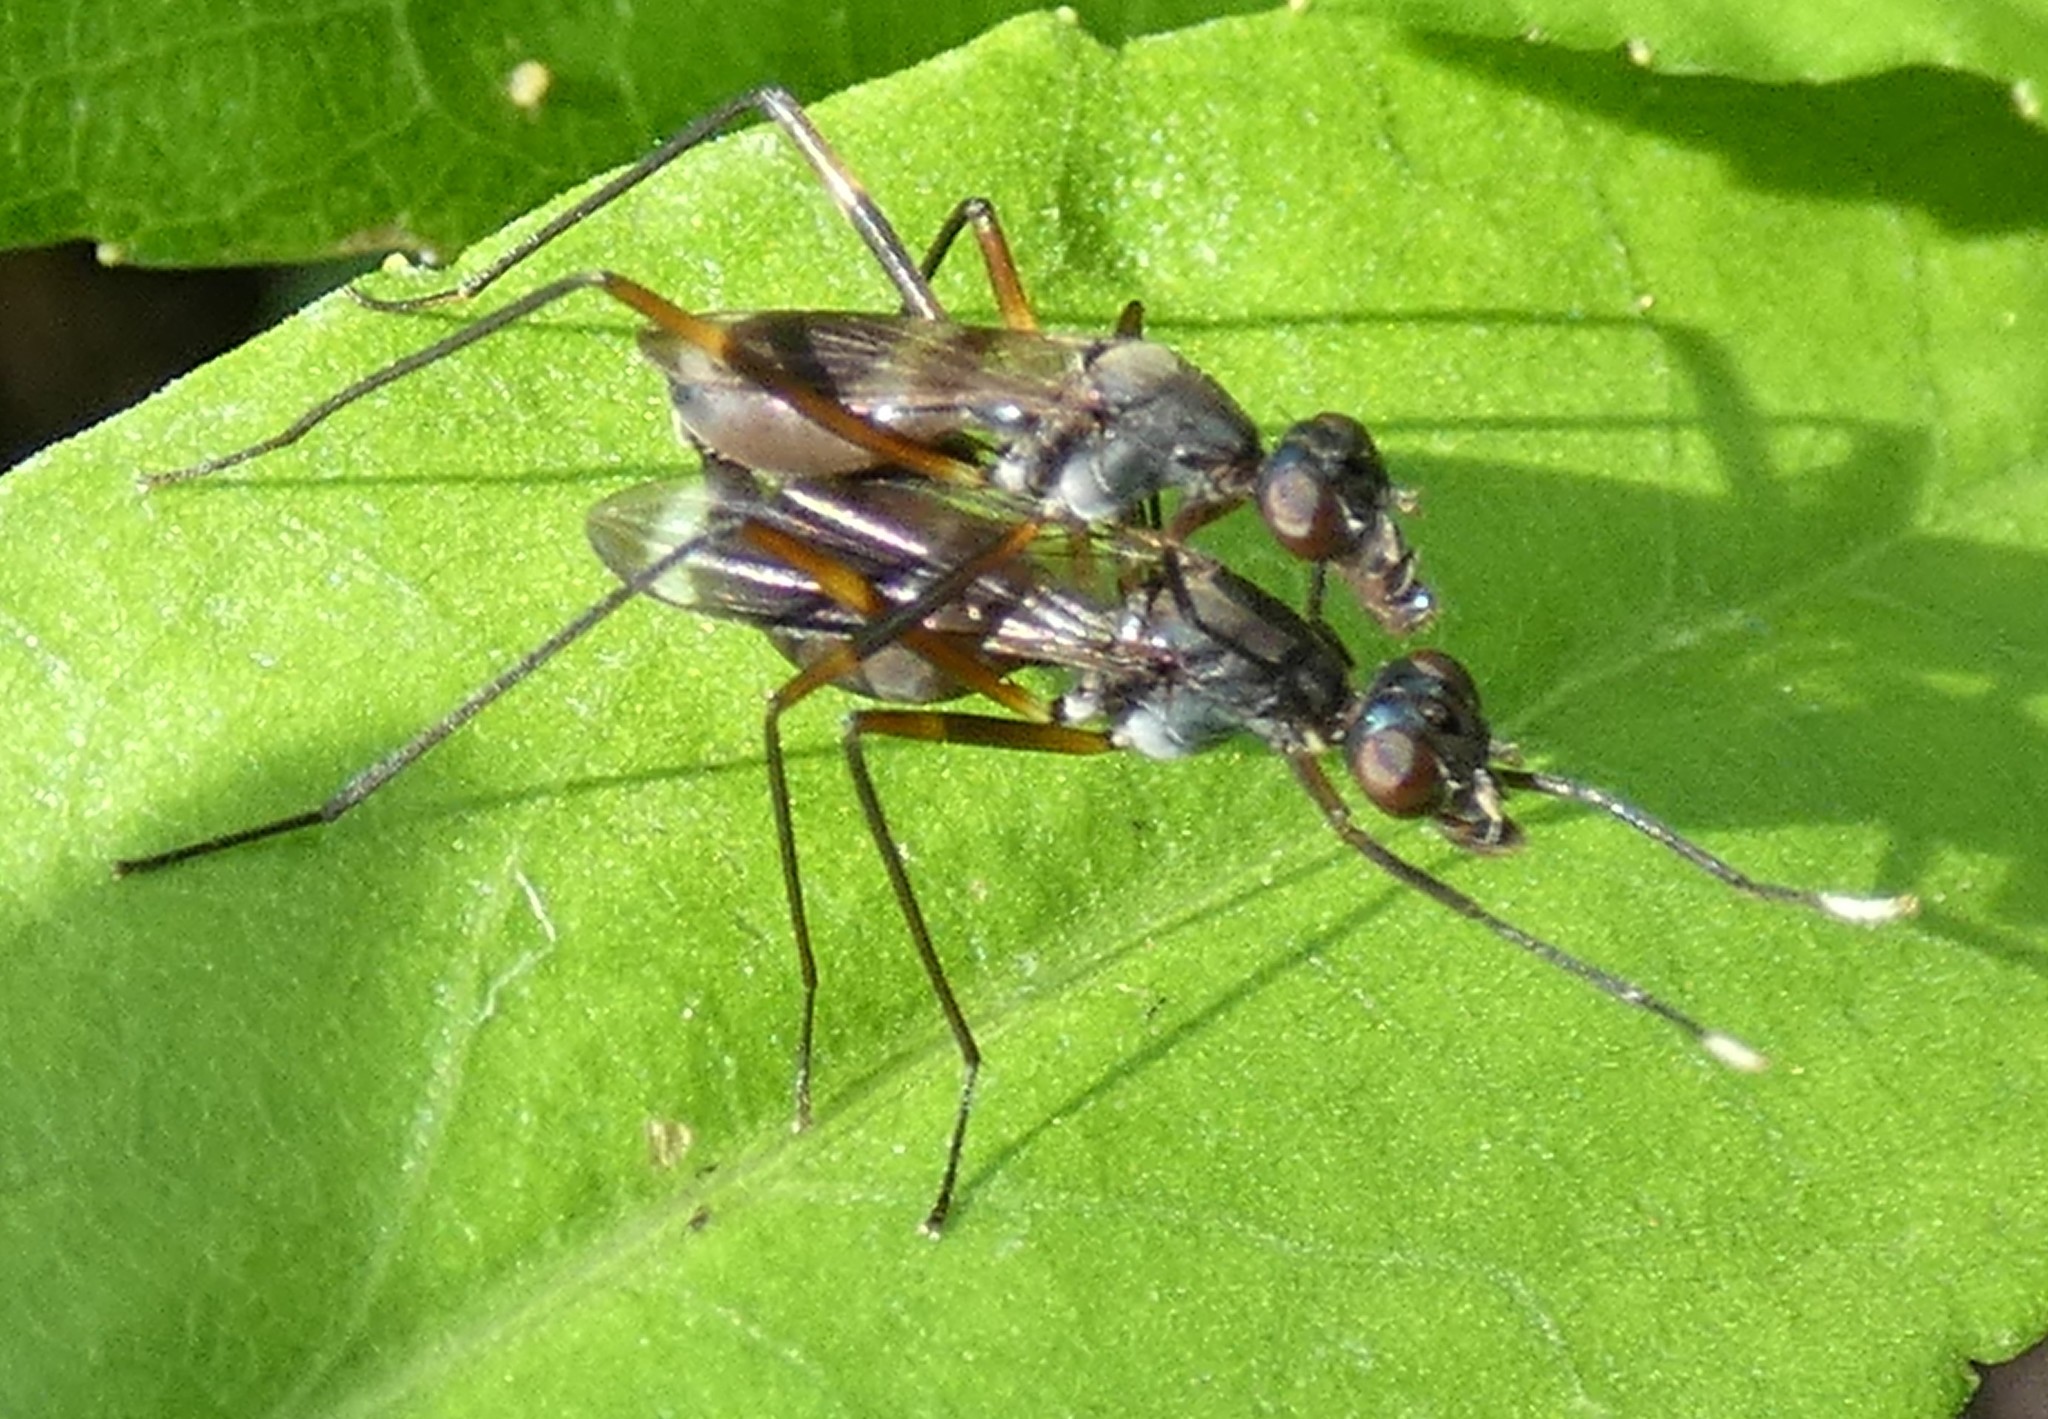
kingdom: Animalia
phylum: Arthropoda
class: Insecta
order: Diptera
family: Micropezidae
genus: Taeniaptera
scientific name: Taeniaptera trivittata
